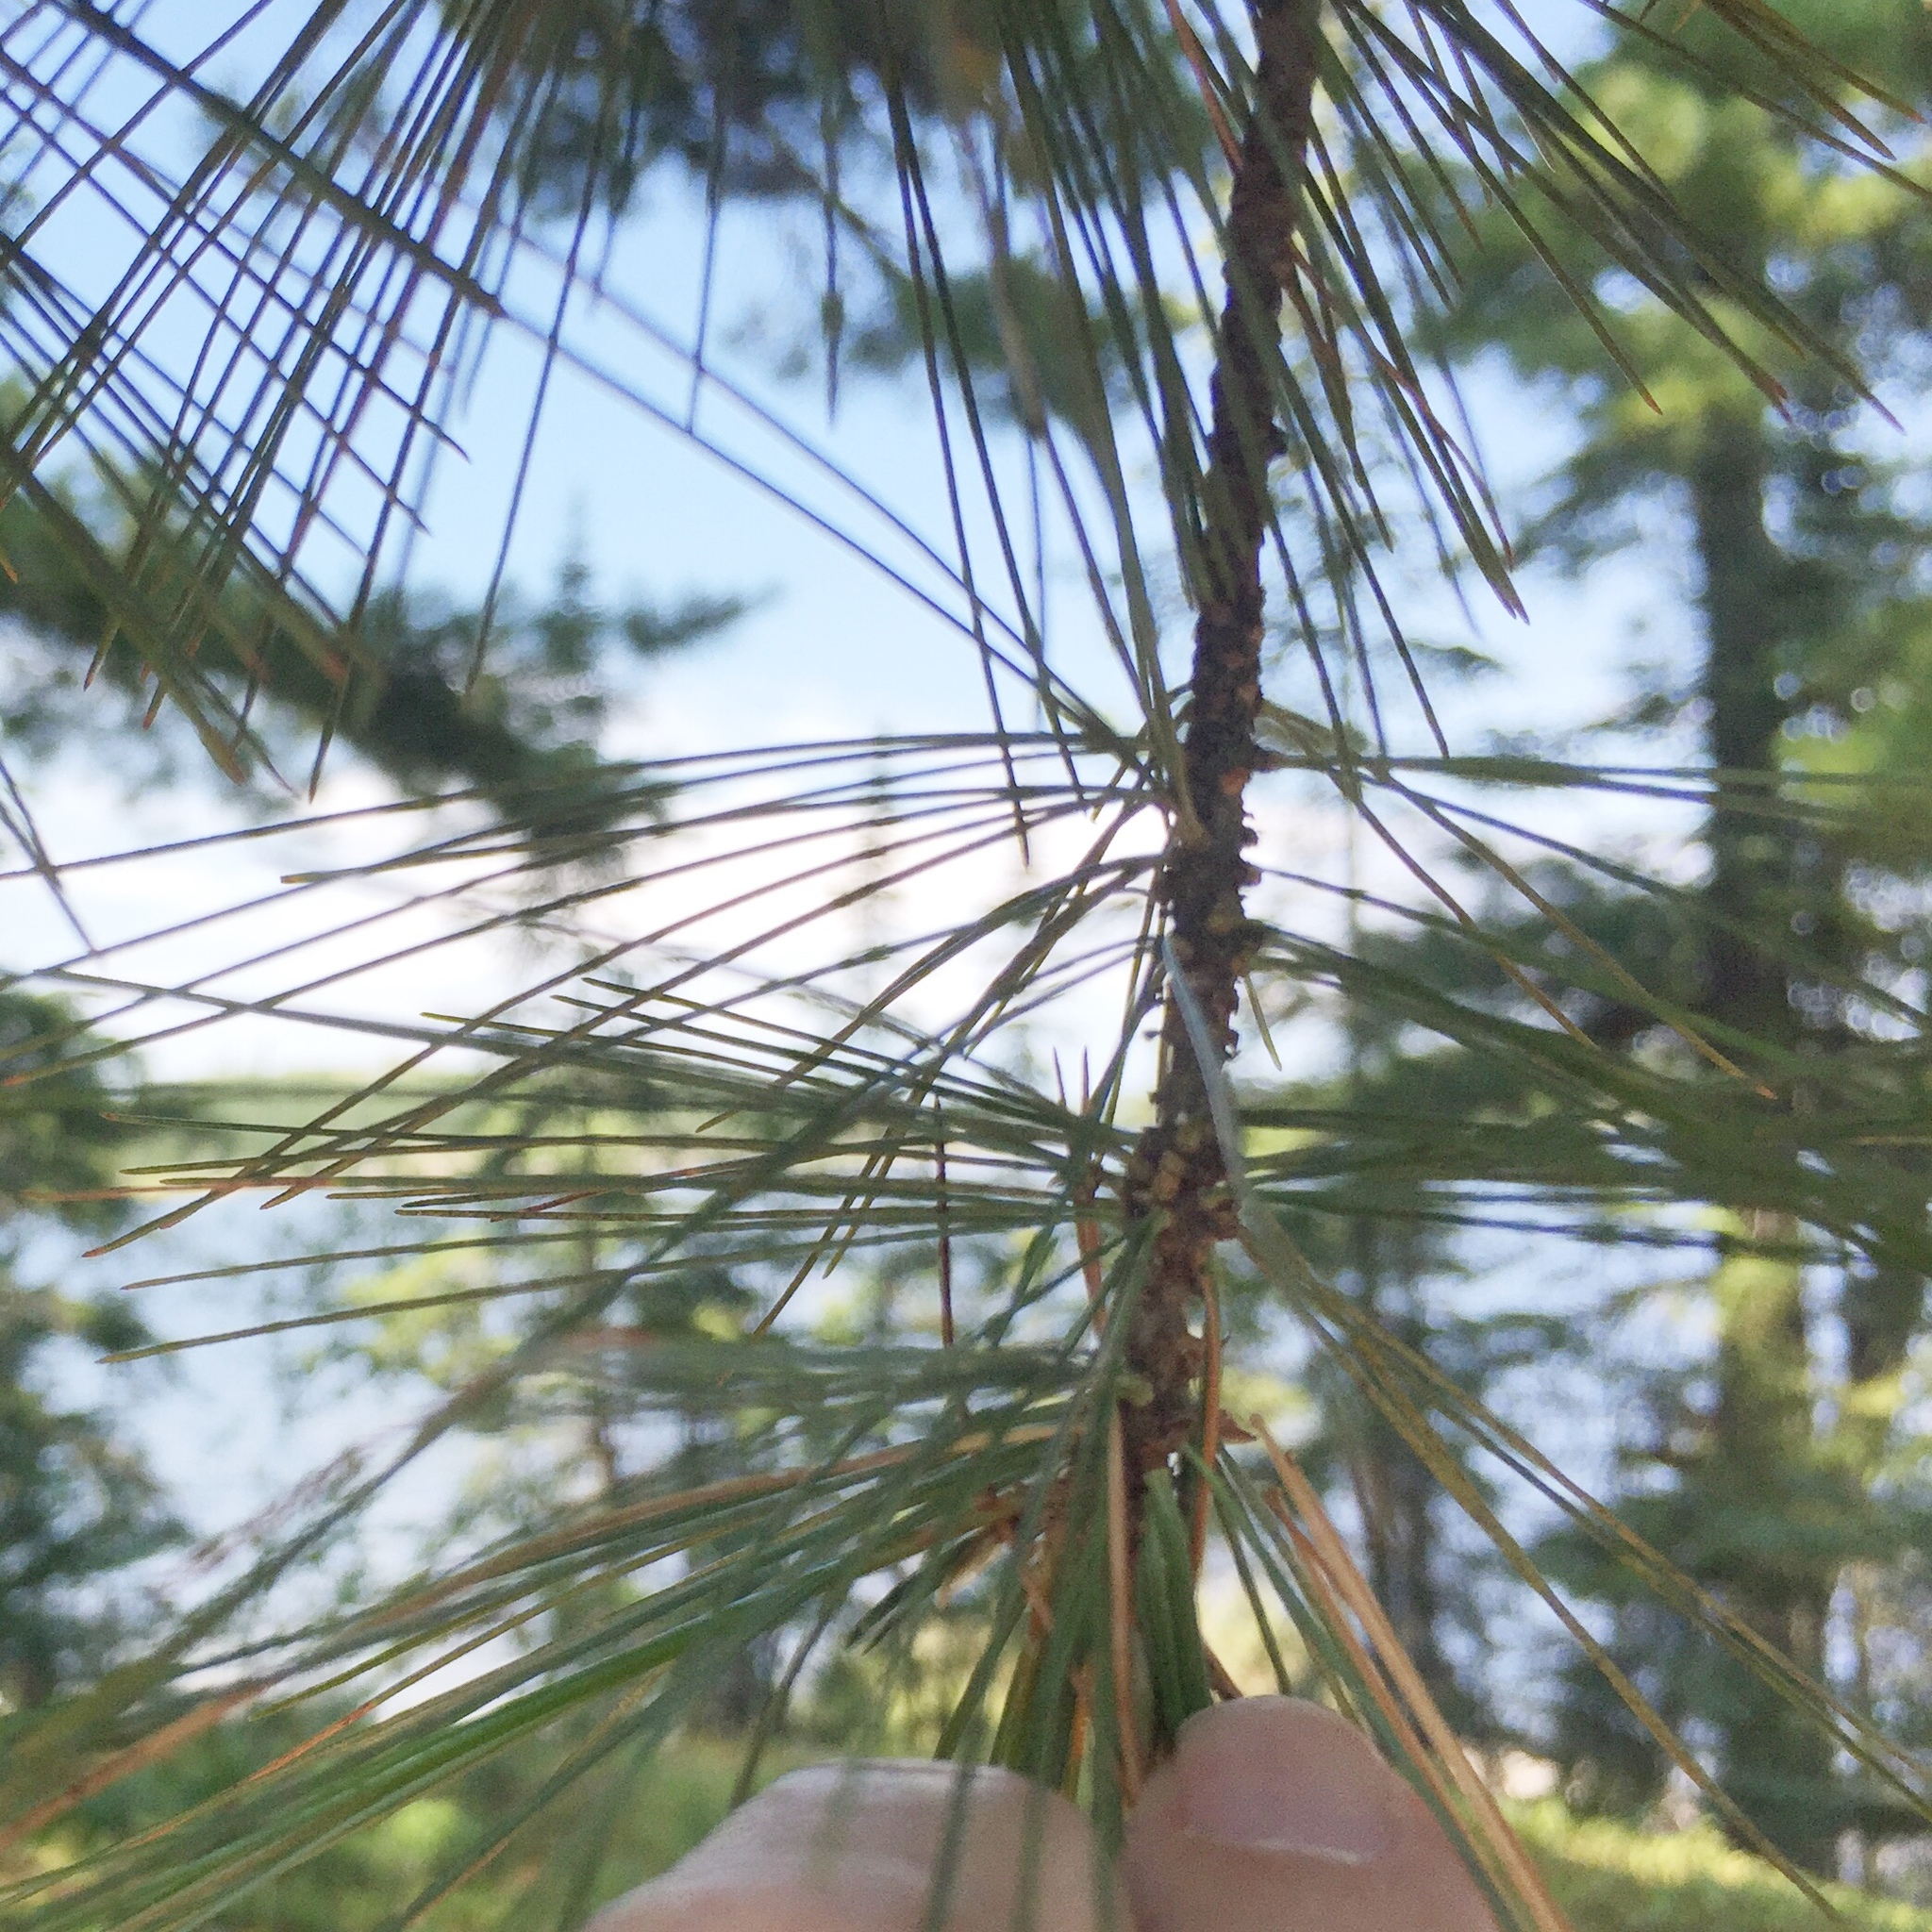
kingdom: Plantae
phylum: Tracheophyta
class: Pinopsida
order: Pinales
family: Pinaceae
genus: Pinus
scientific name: Pinus strobus
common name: Weymouth pine
